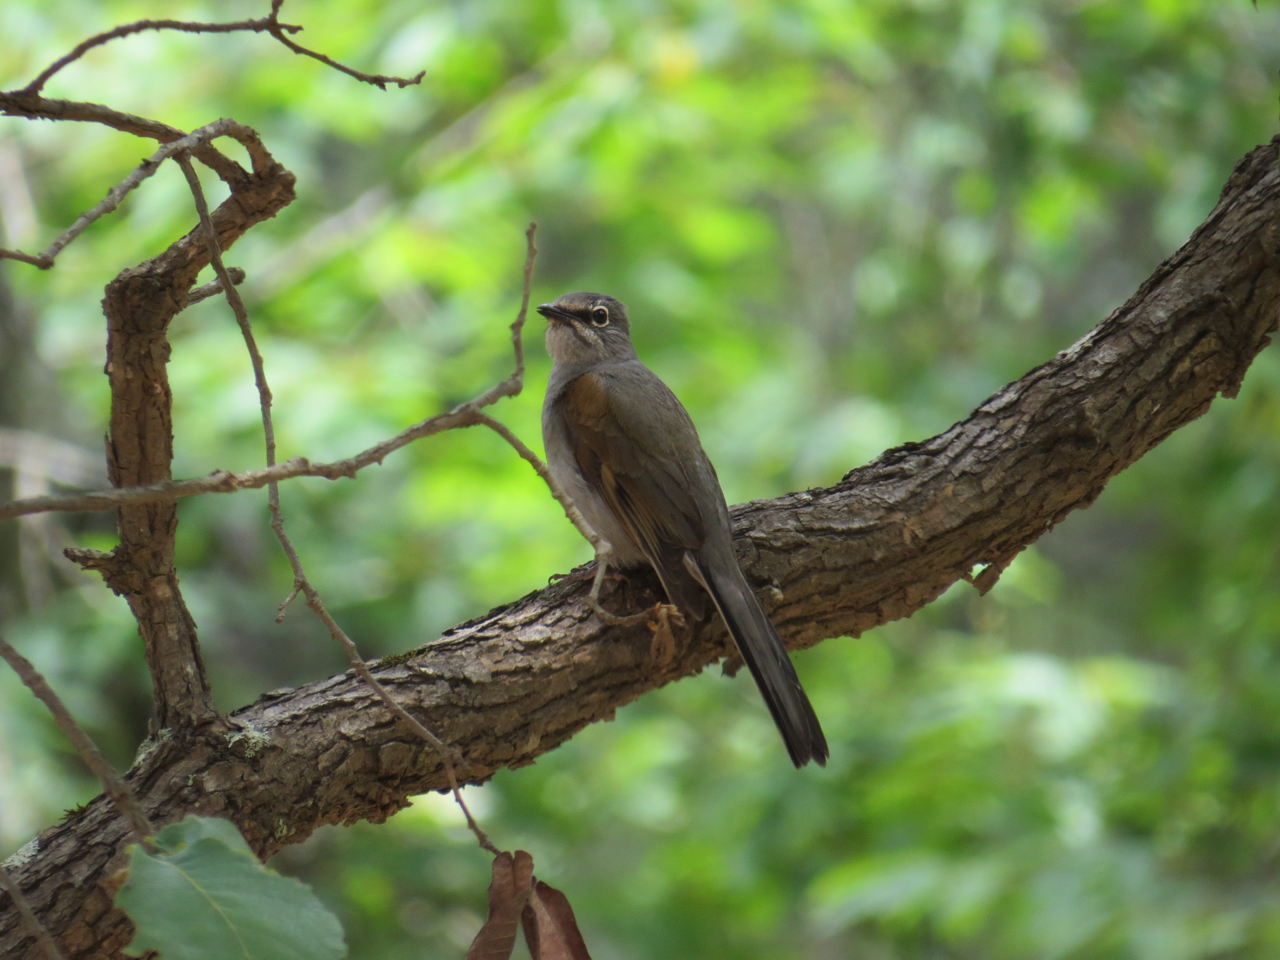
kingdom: Animalia
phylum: Chordata
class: Aves
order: Passeriformes
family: Turdidae
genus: Myadestes
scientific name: Myadestes occidentalis
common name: Brown-backed solitaire
